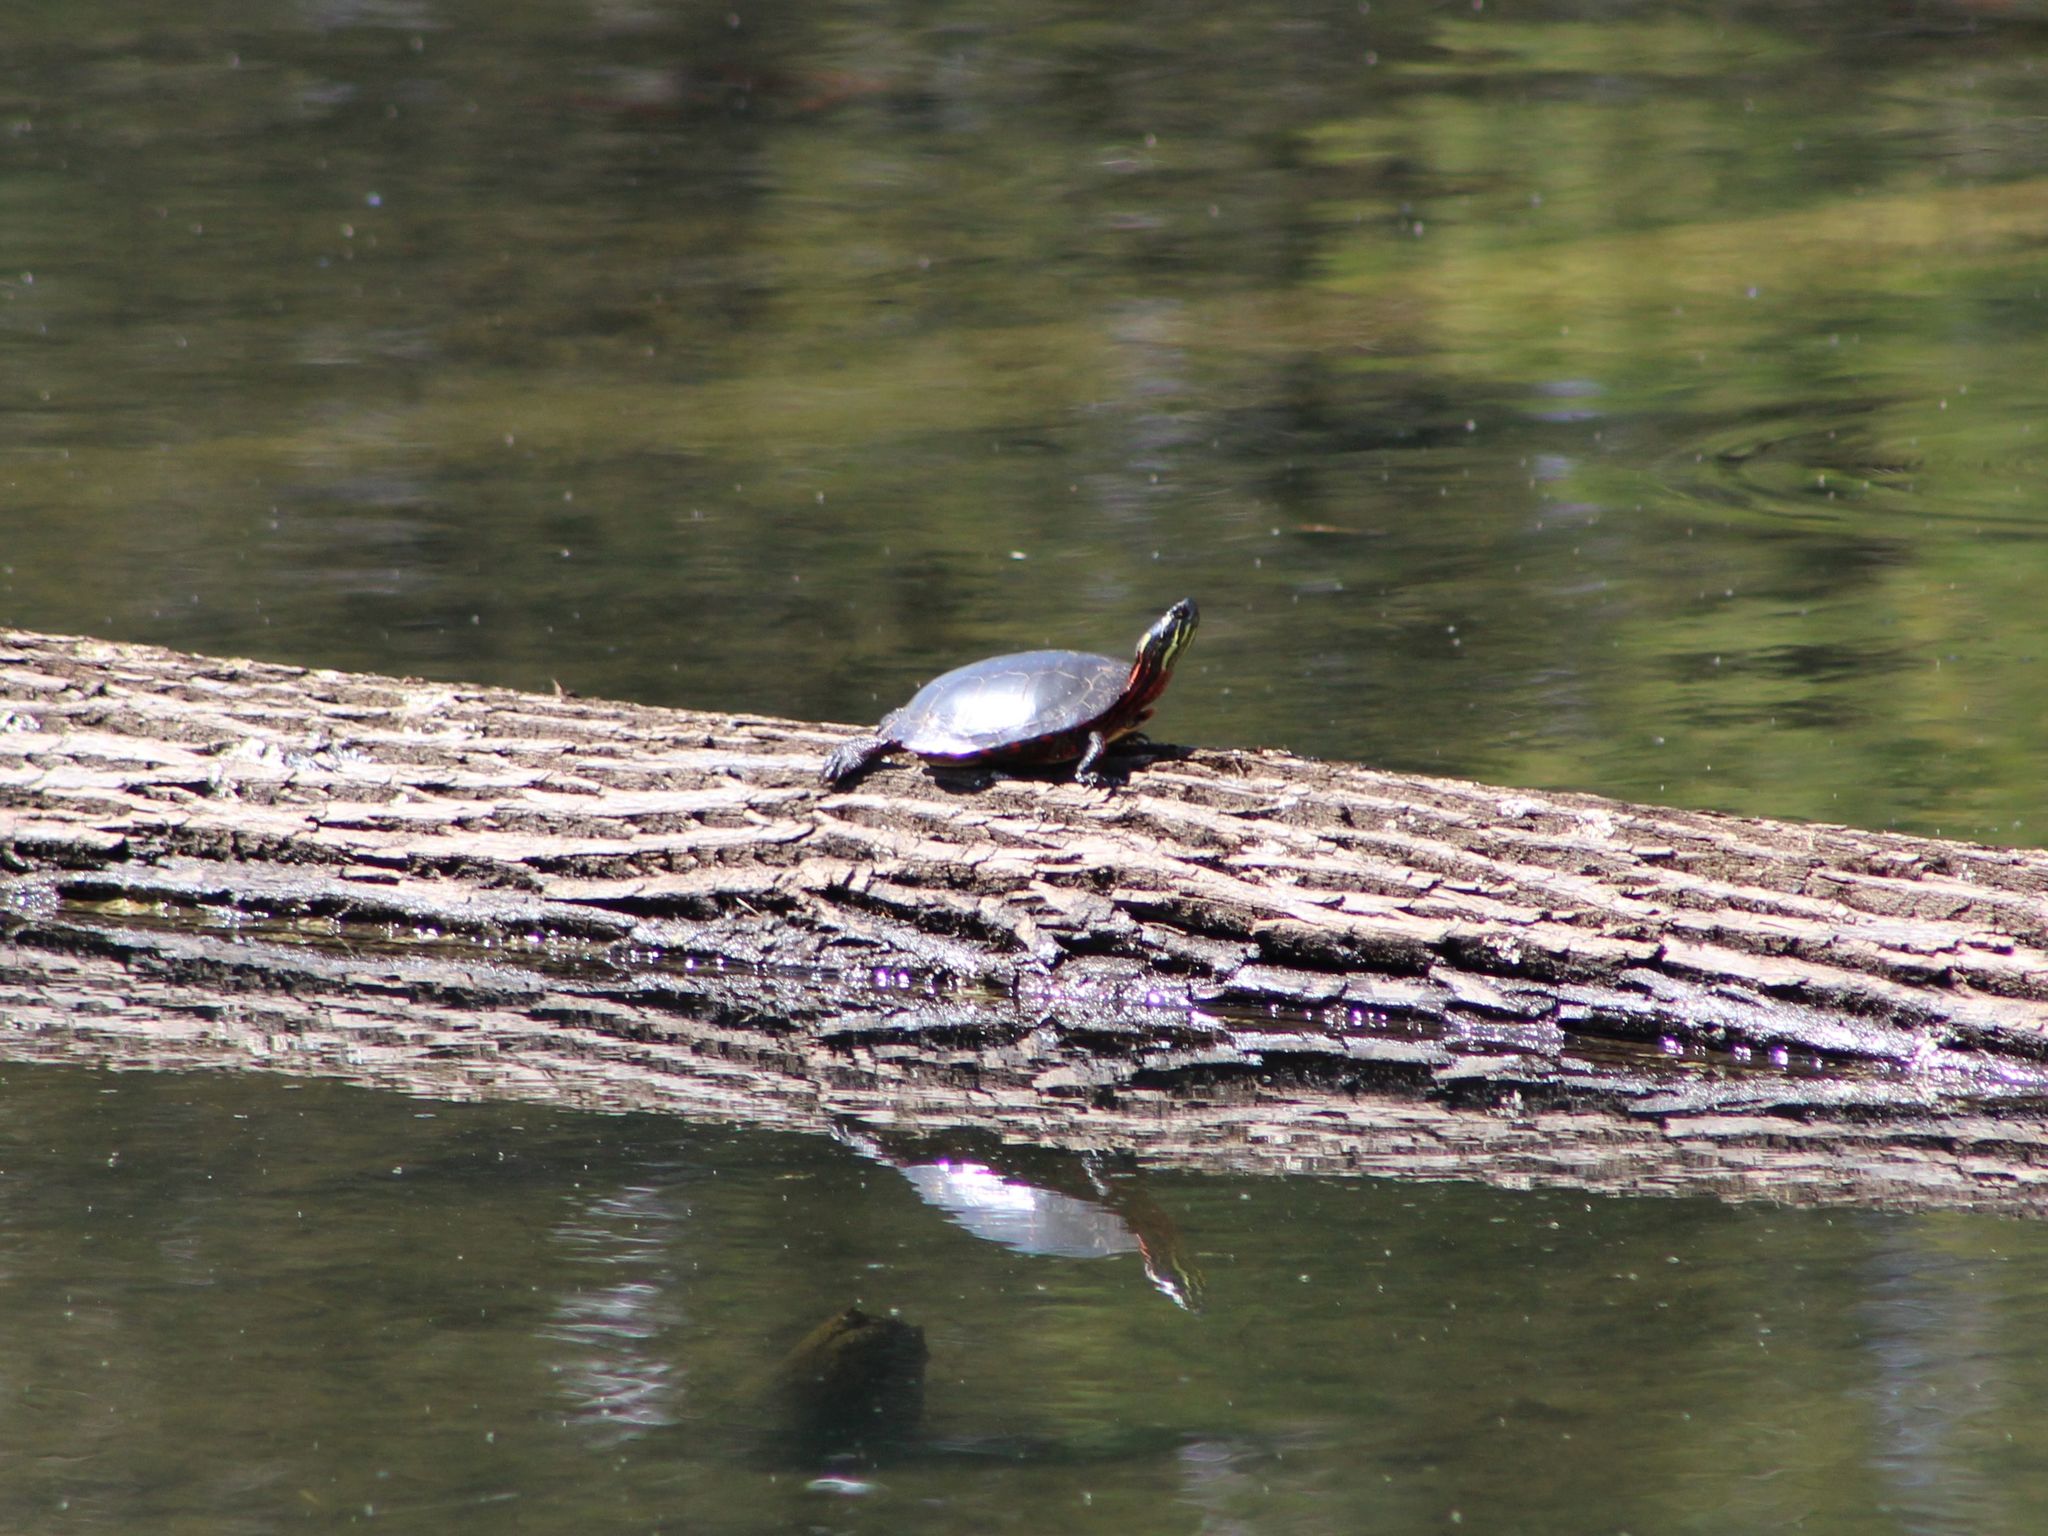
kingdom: Animalia
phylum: Chordata
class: Testudines
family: Emydidae
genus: Chrysemys
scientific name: Chrysemys picta
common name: Painted turtle
